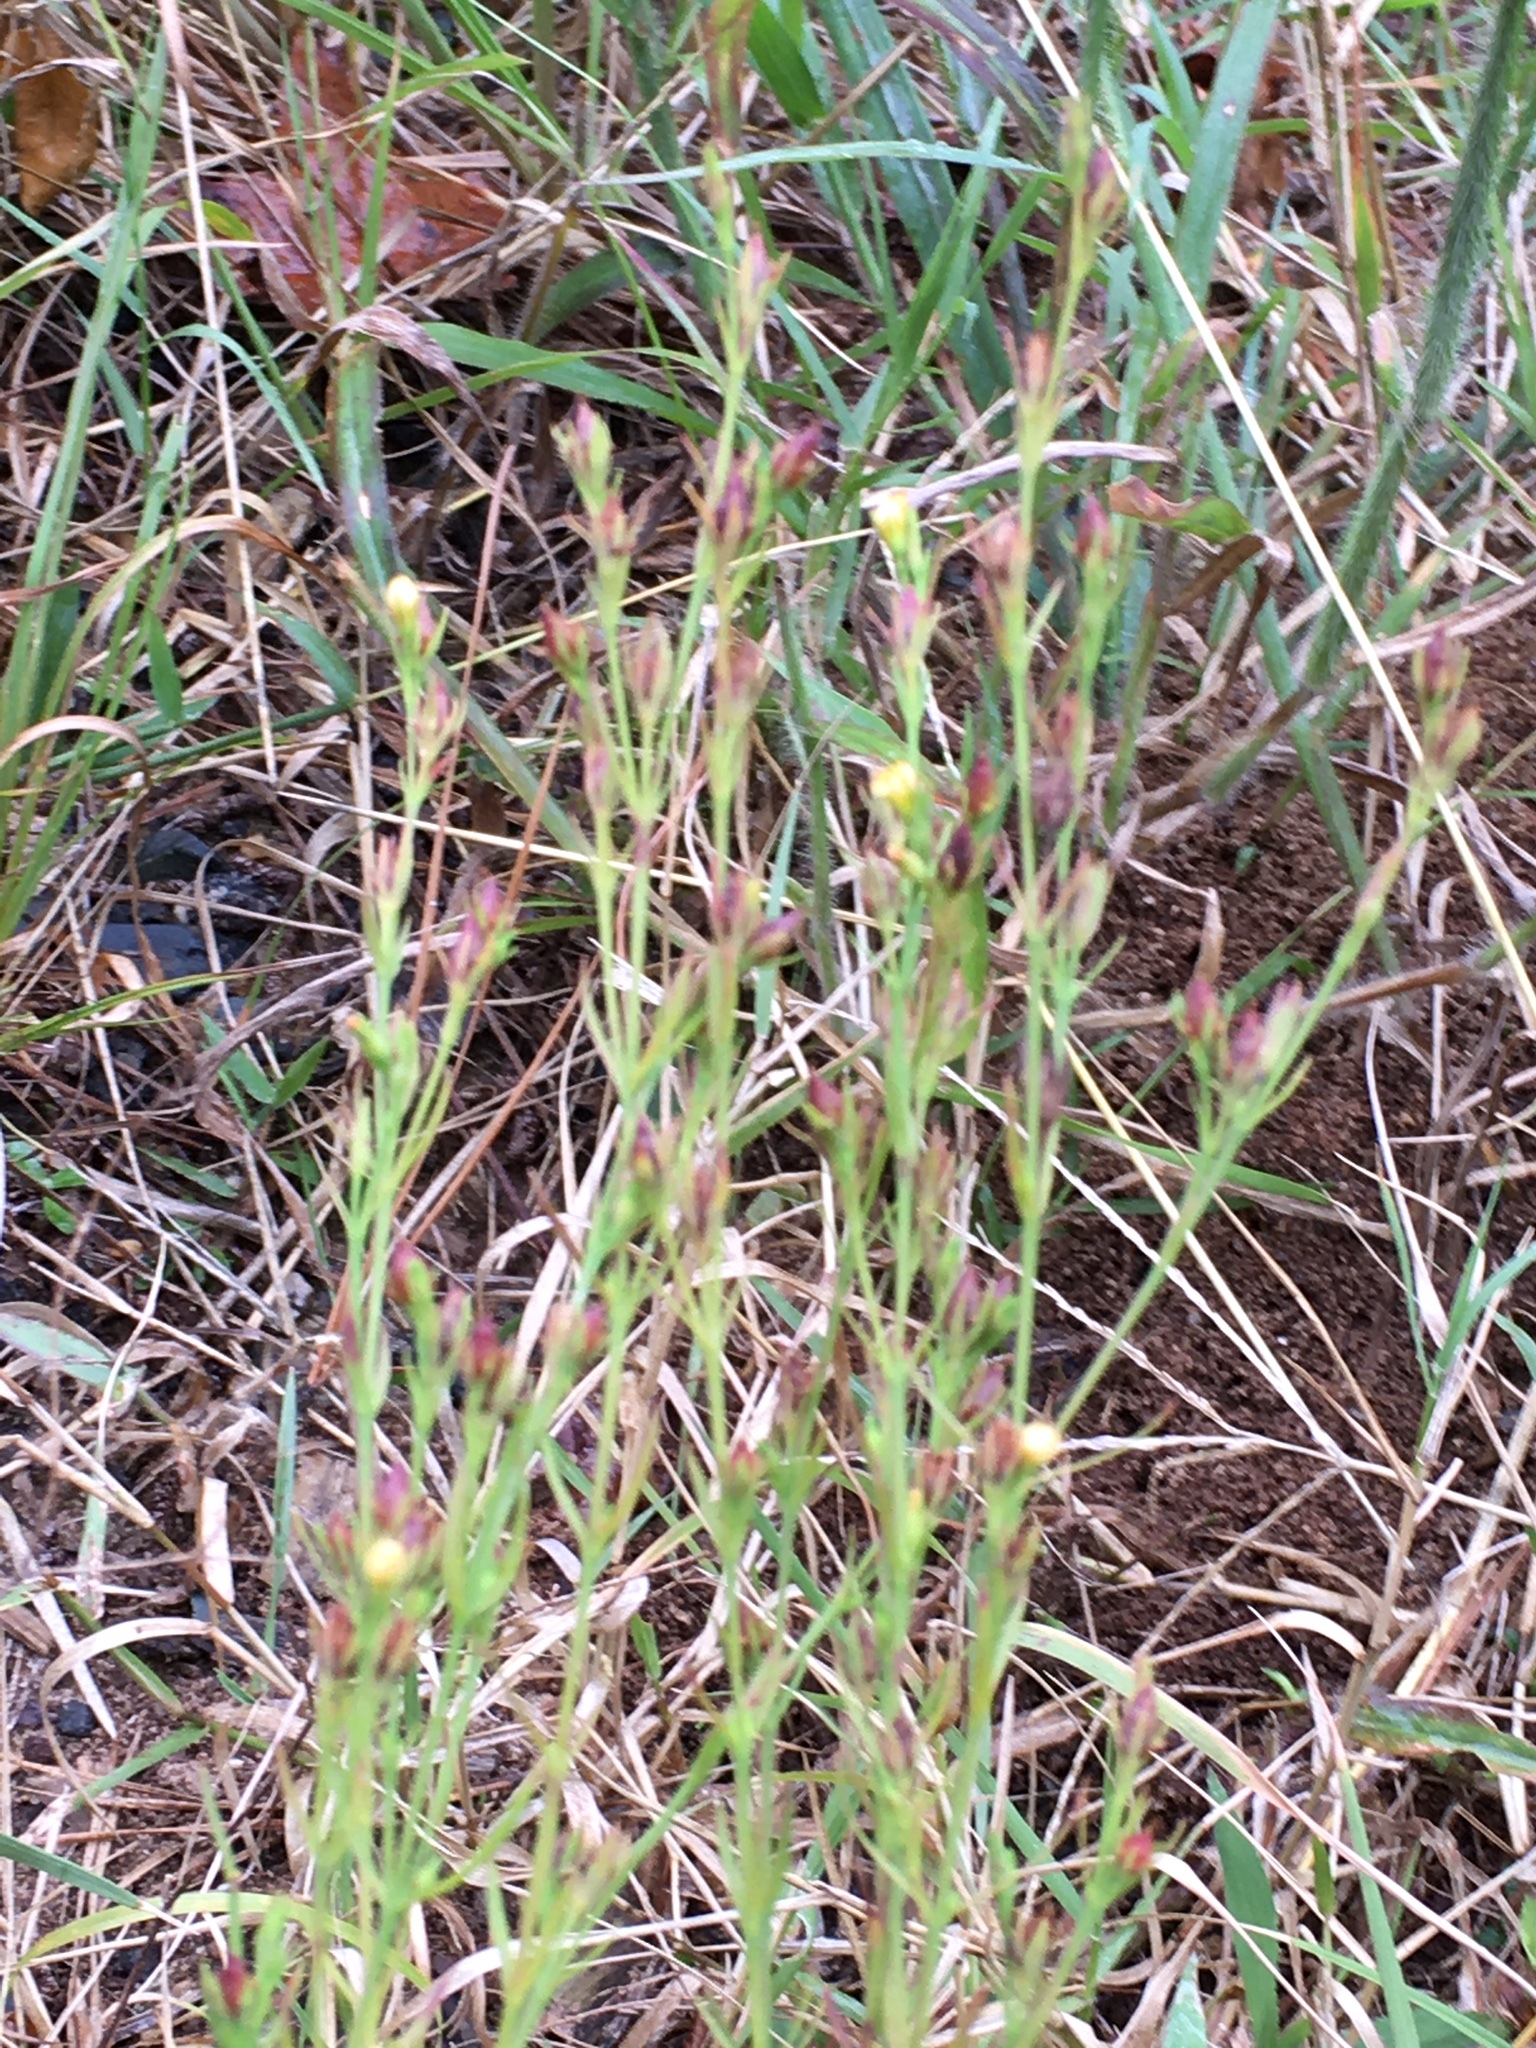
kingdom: Plantae
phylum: Tracheophyta
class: Magnoliopsida
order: Malpighiales
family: Hypericaceae
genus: Hypericum
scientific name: Hypericum drummondii
